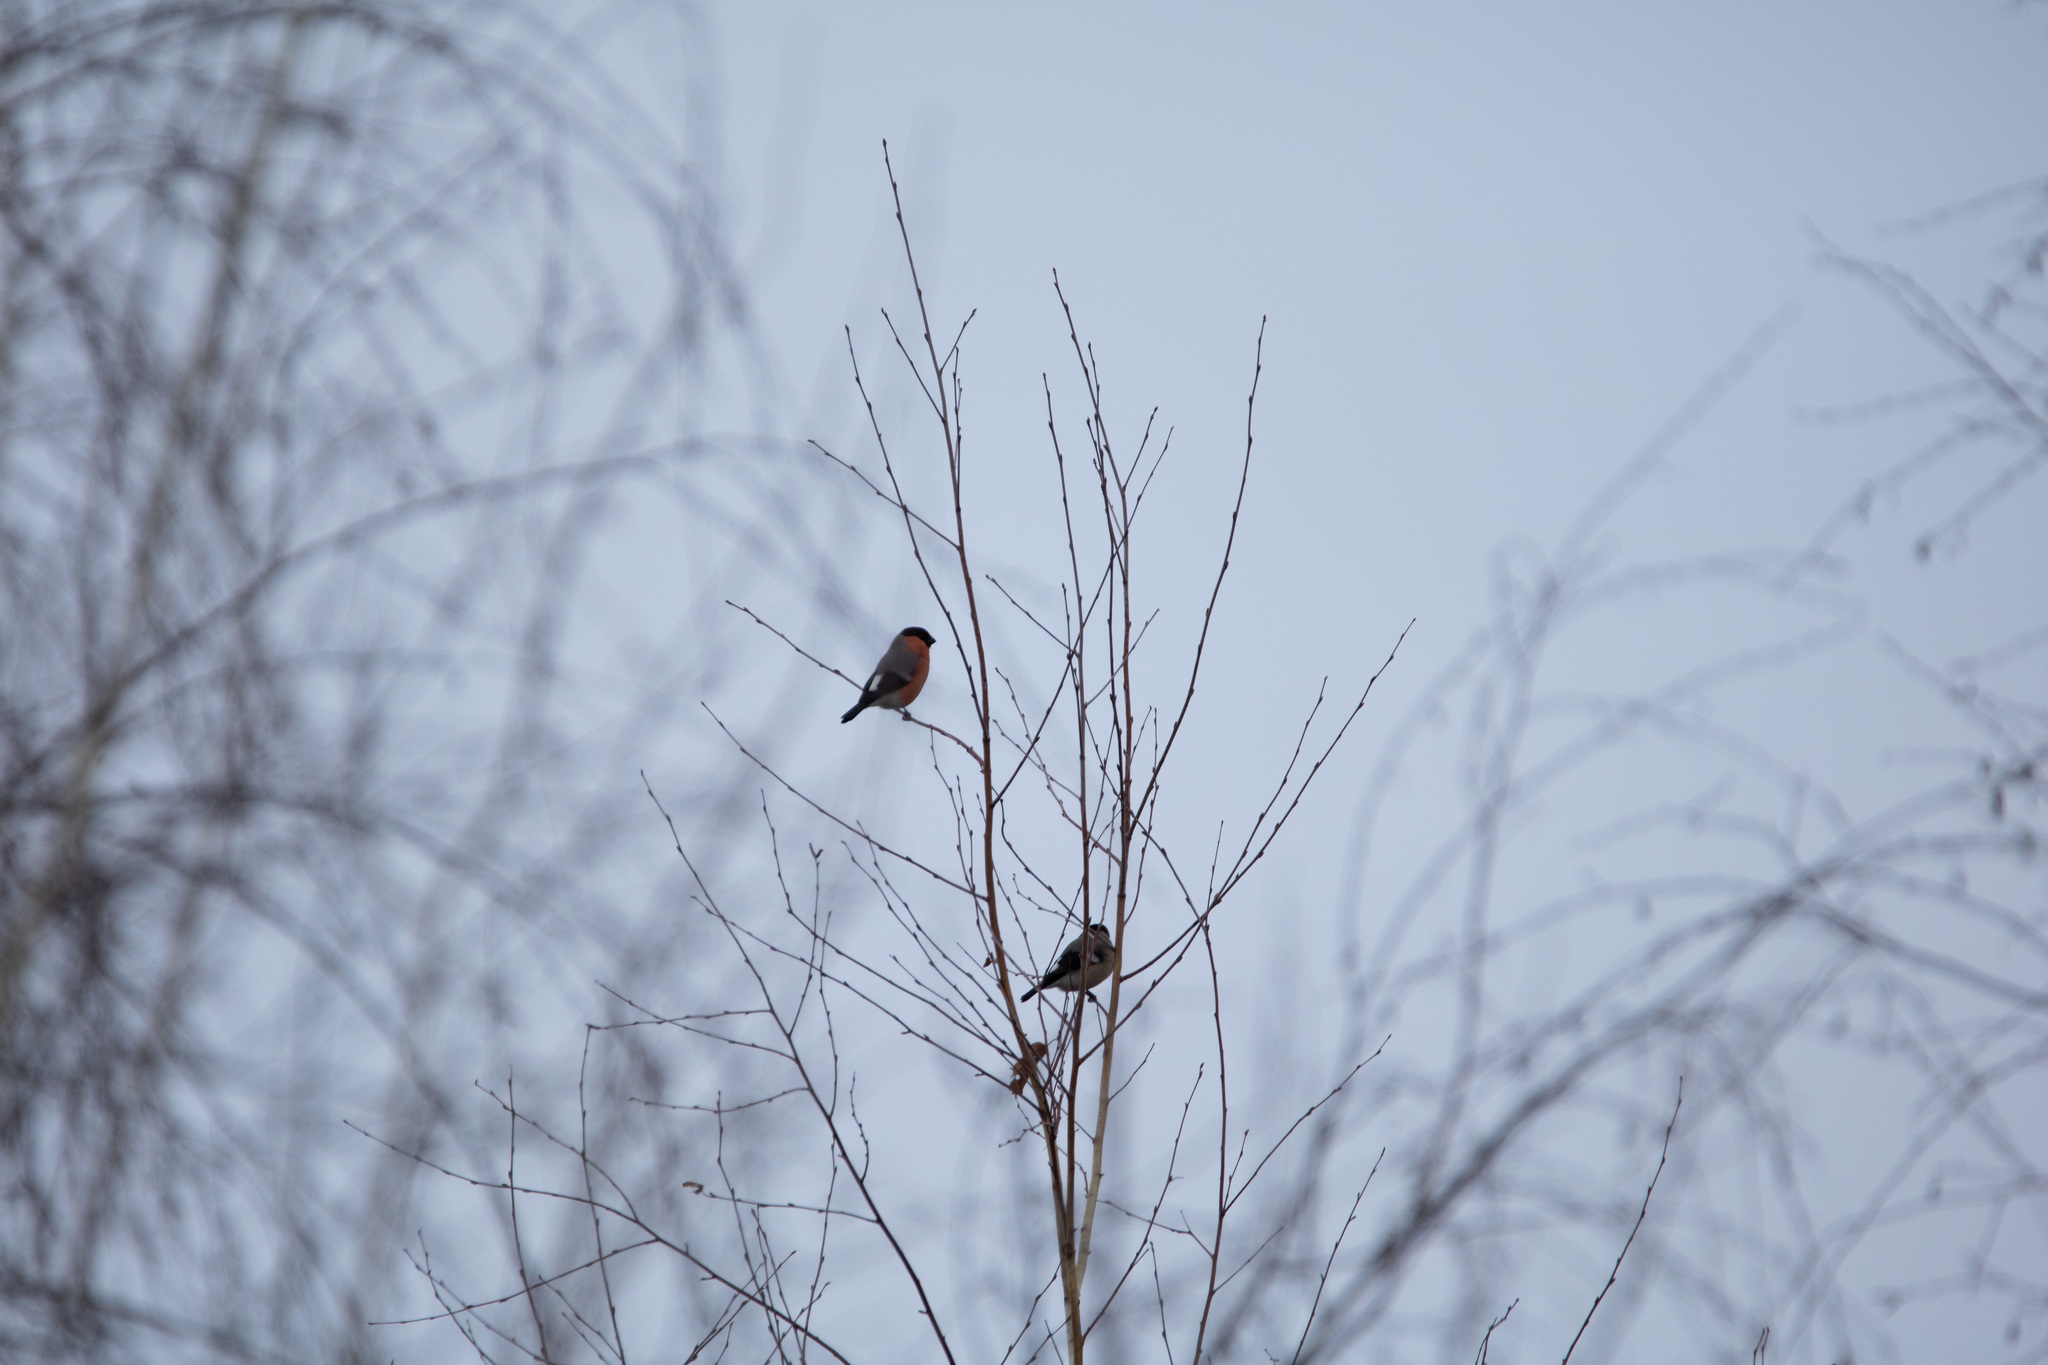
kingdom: Animalia
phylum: Chordata
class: Aves
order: Passeriformes
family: Fringillidae
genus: Pyrrhula
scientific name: Pyrrhula pyrrhula
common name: Eurasian bullfinch
